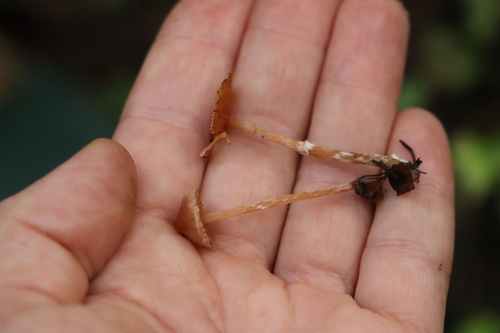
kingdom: Fungi
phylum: Basidiomycota
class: Agaricomycetes
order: Agaricales
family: Cortinariaceae
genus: Cortinarius
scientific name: Cortinarius parvannulatus
